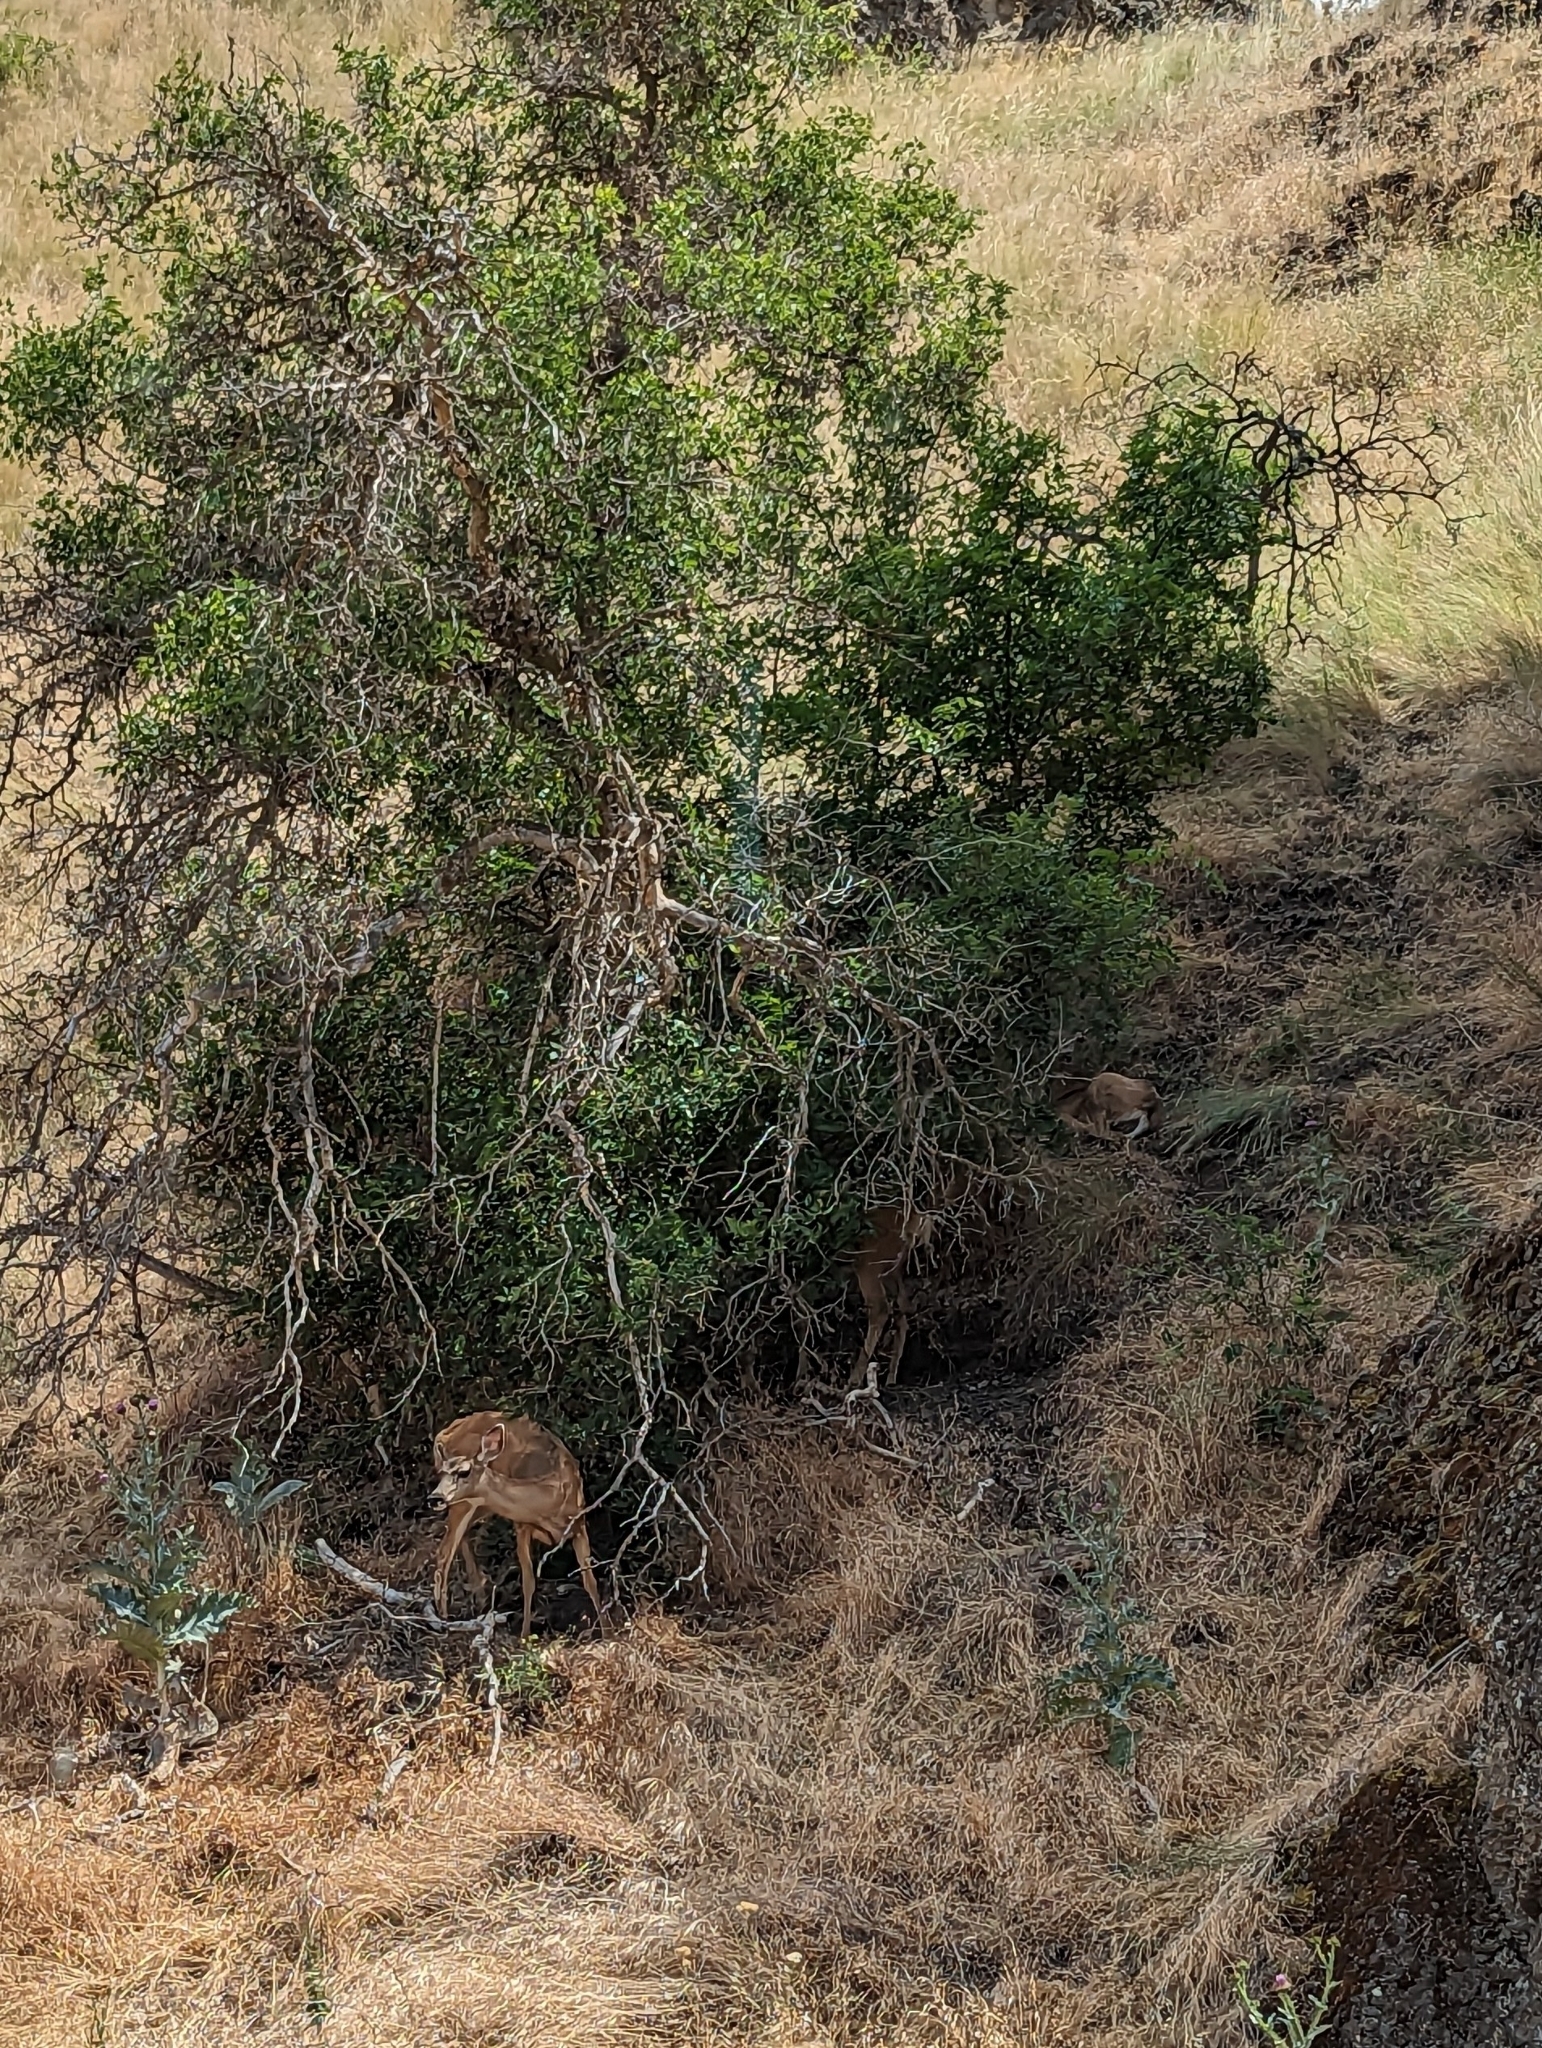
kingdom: Animalia
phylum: Chordata
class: Mammalia
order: Artiodactyla
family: Cervidae
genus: Odocoileus
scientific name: Odocoileus virginianus
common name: White-tailed deer
